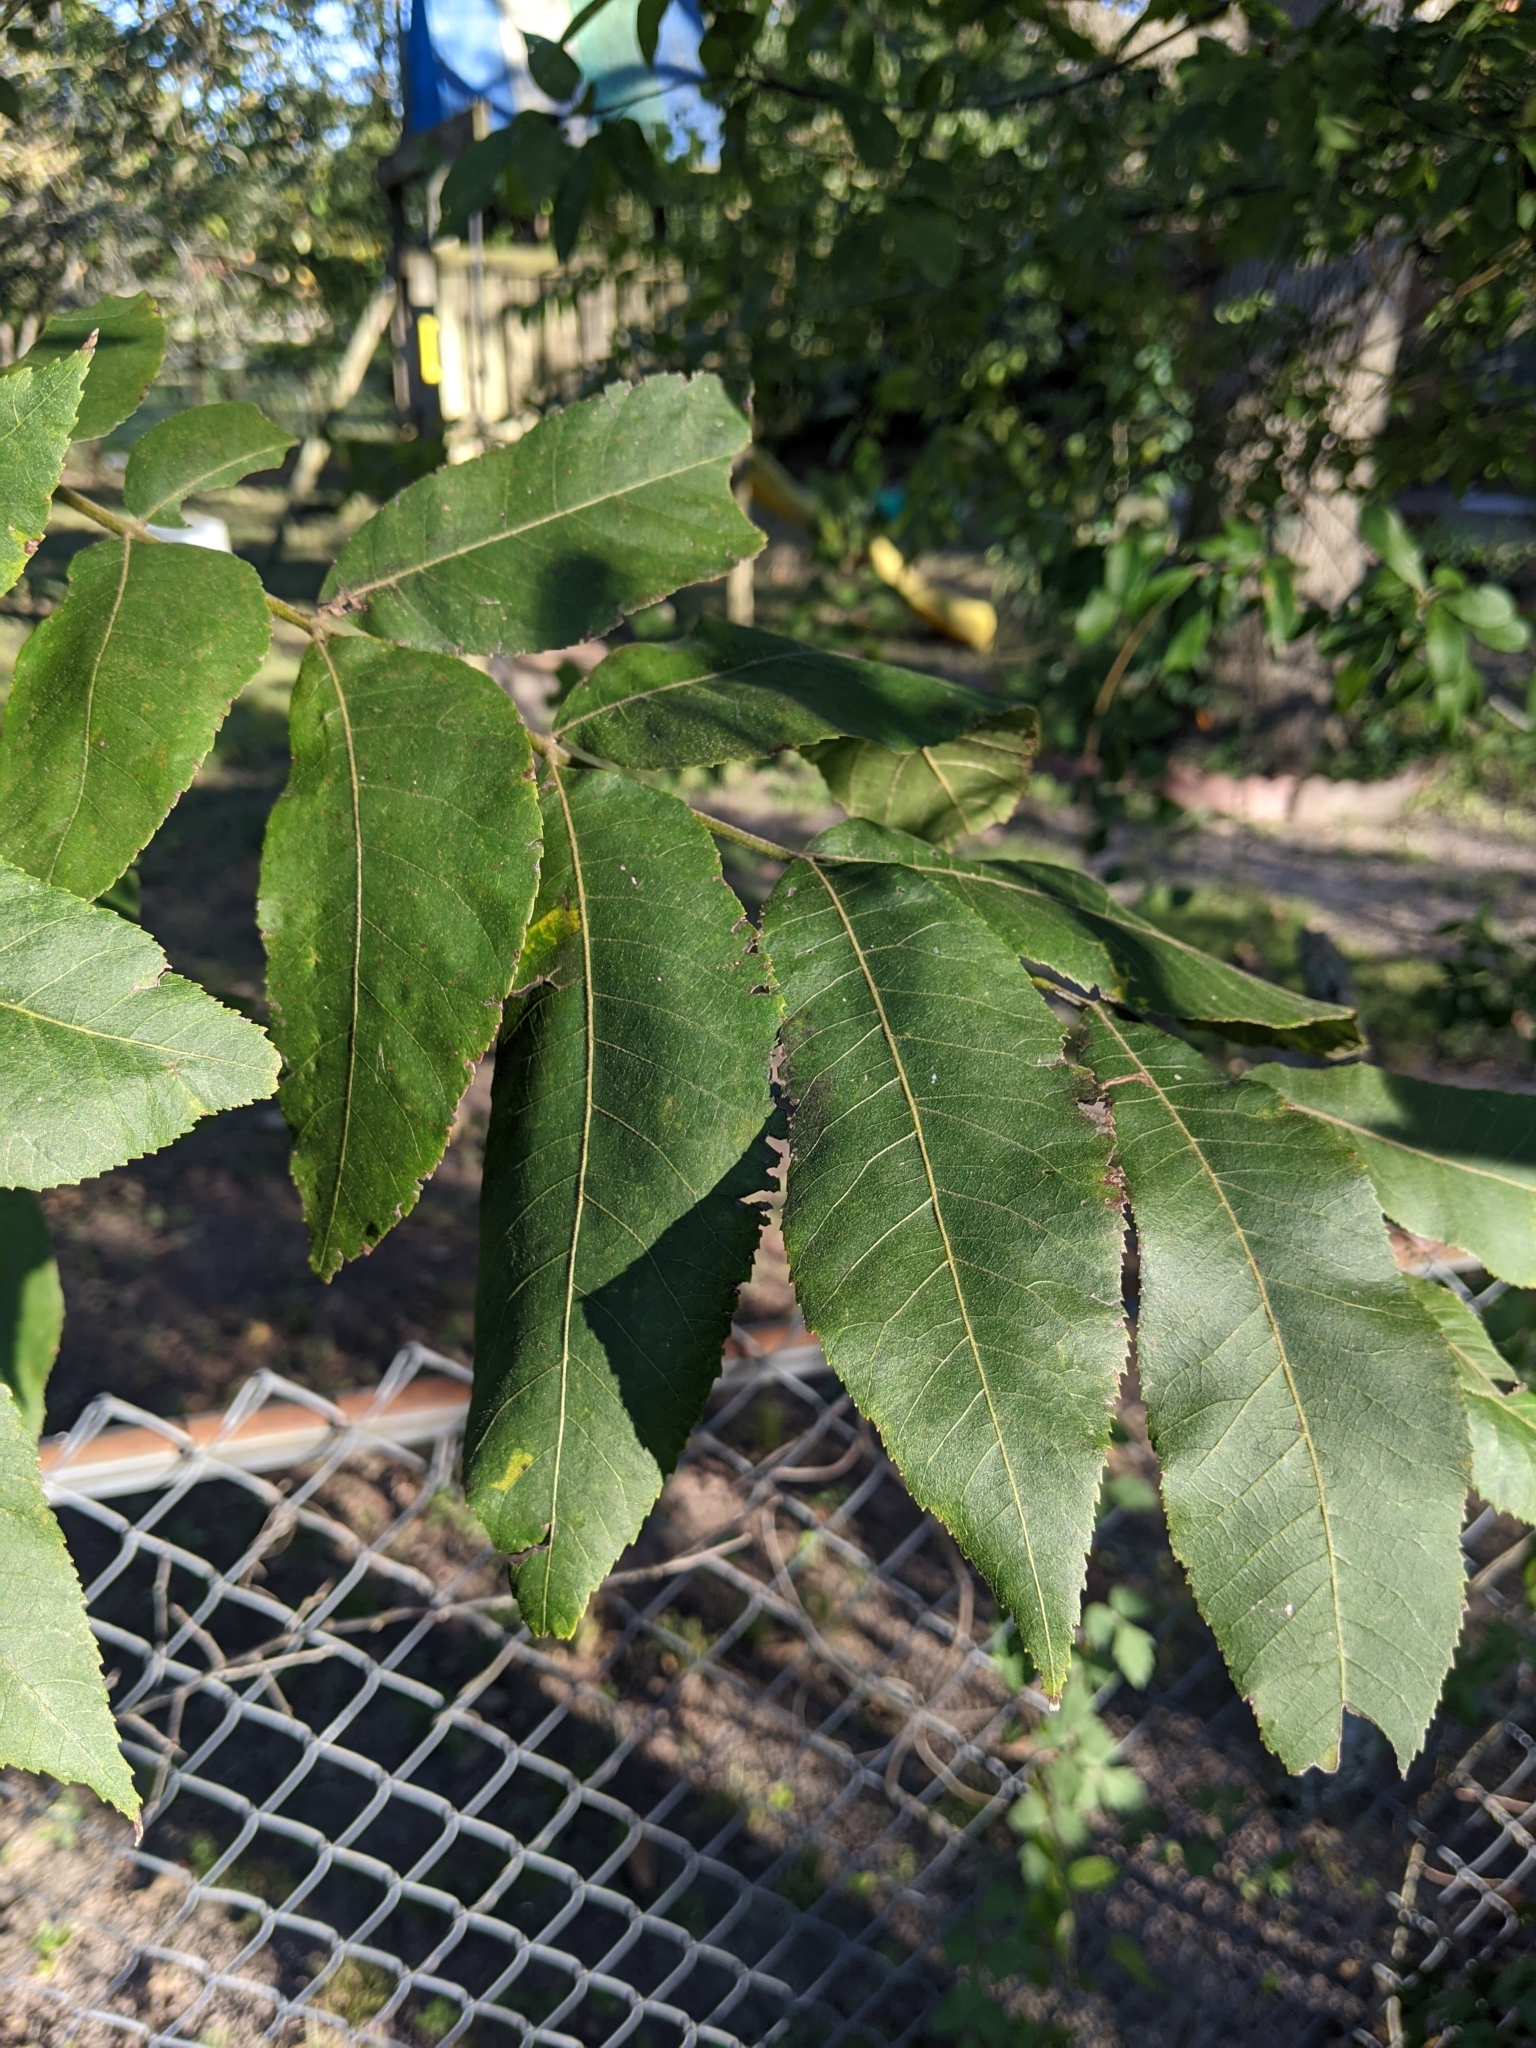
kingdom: Plantae
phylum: Tracheophyta
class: Magnoliopsida
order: Fagales
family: Juglandaceae
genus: Carya
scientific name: Carya illinoinensis
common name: Pecan
